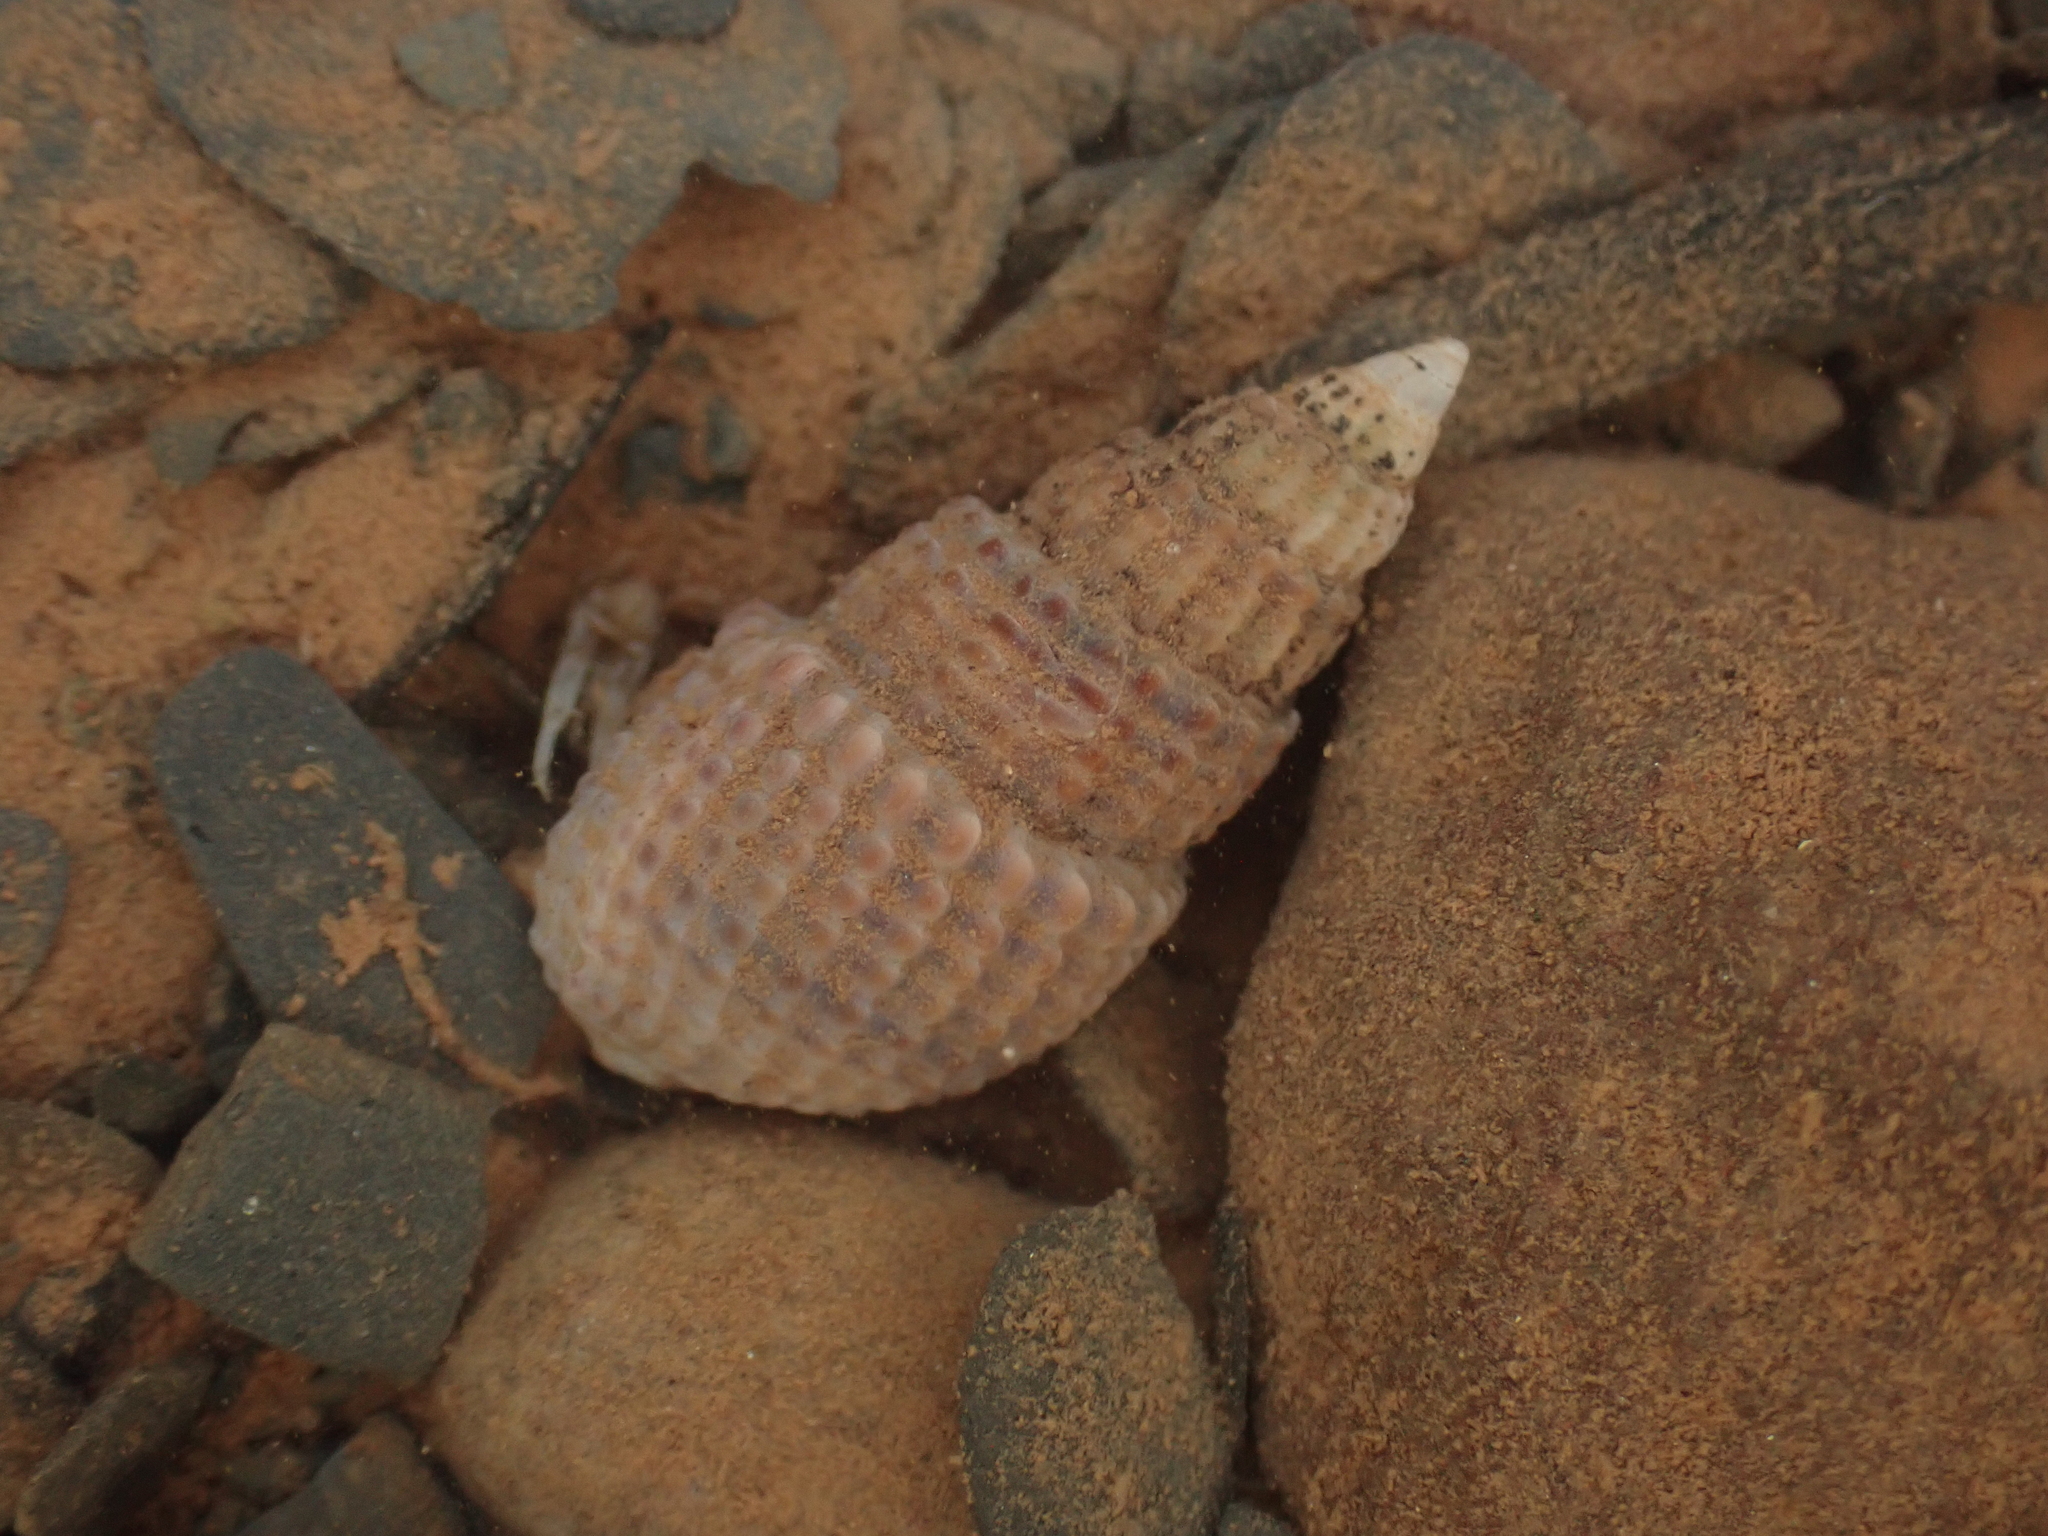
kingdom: Animalia
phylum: Mollusca
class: Gastropoda
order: Neogastropoda
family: Nassariidae
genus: Ilyanassa
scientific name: Ilyanassa trivittata
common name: Three-line mudsnail
